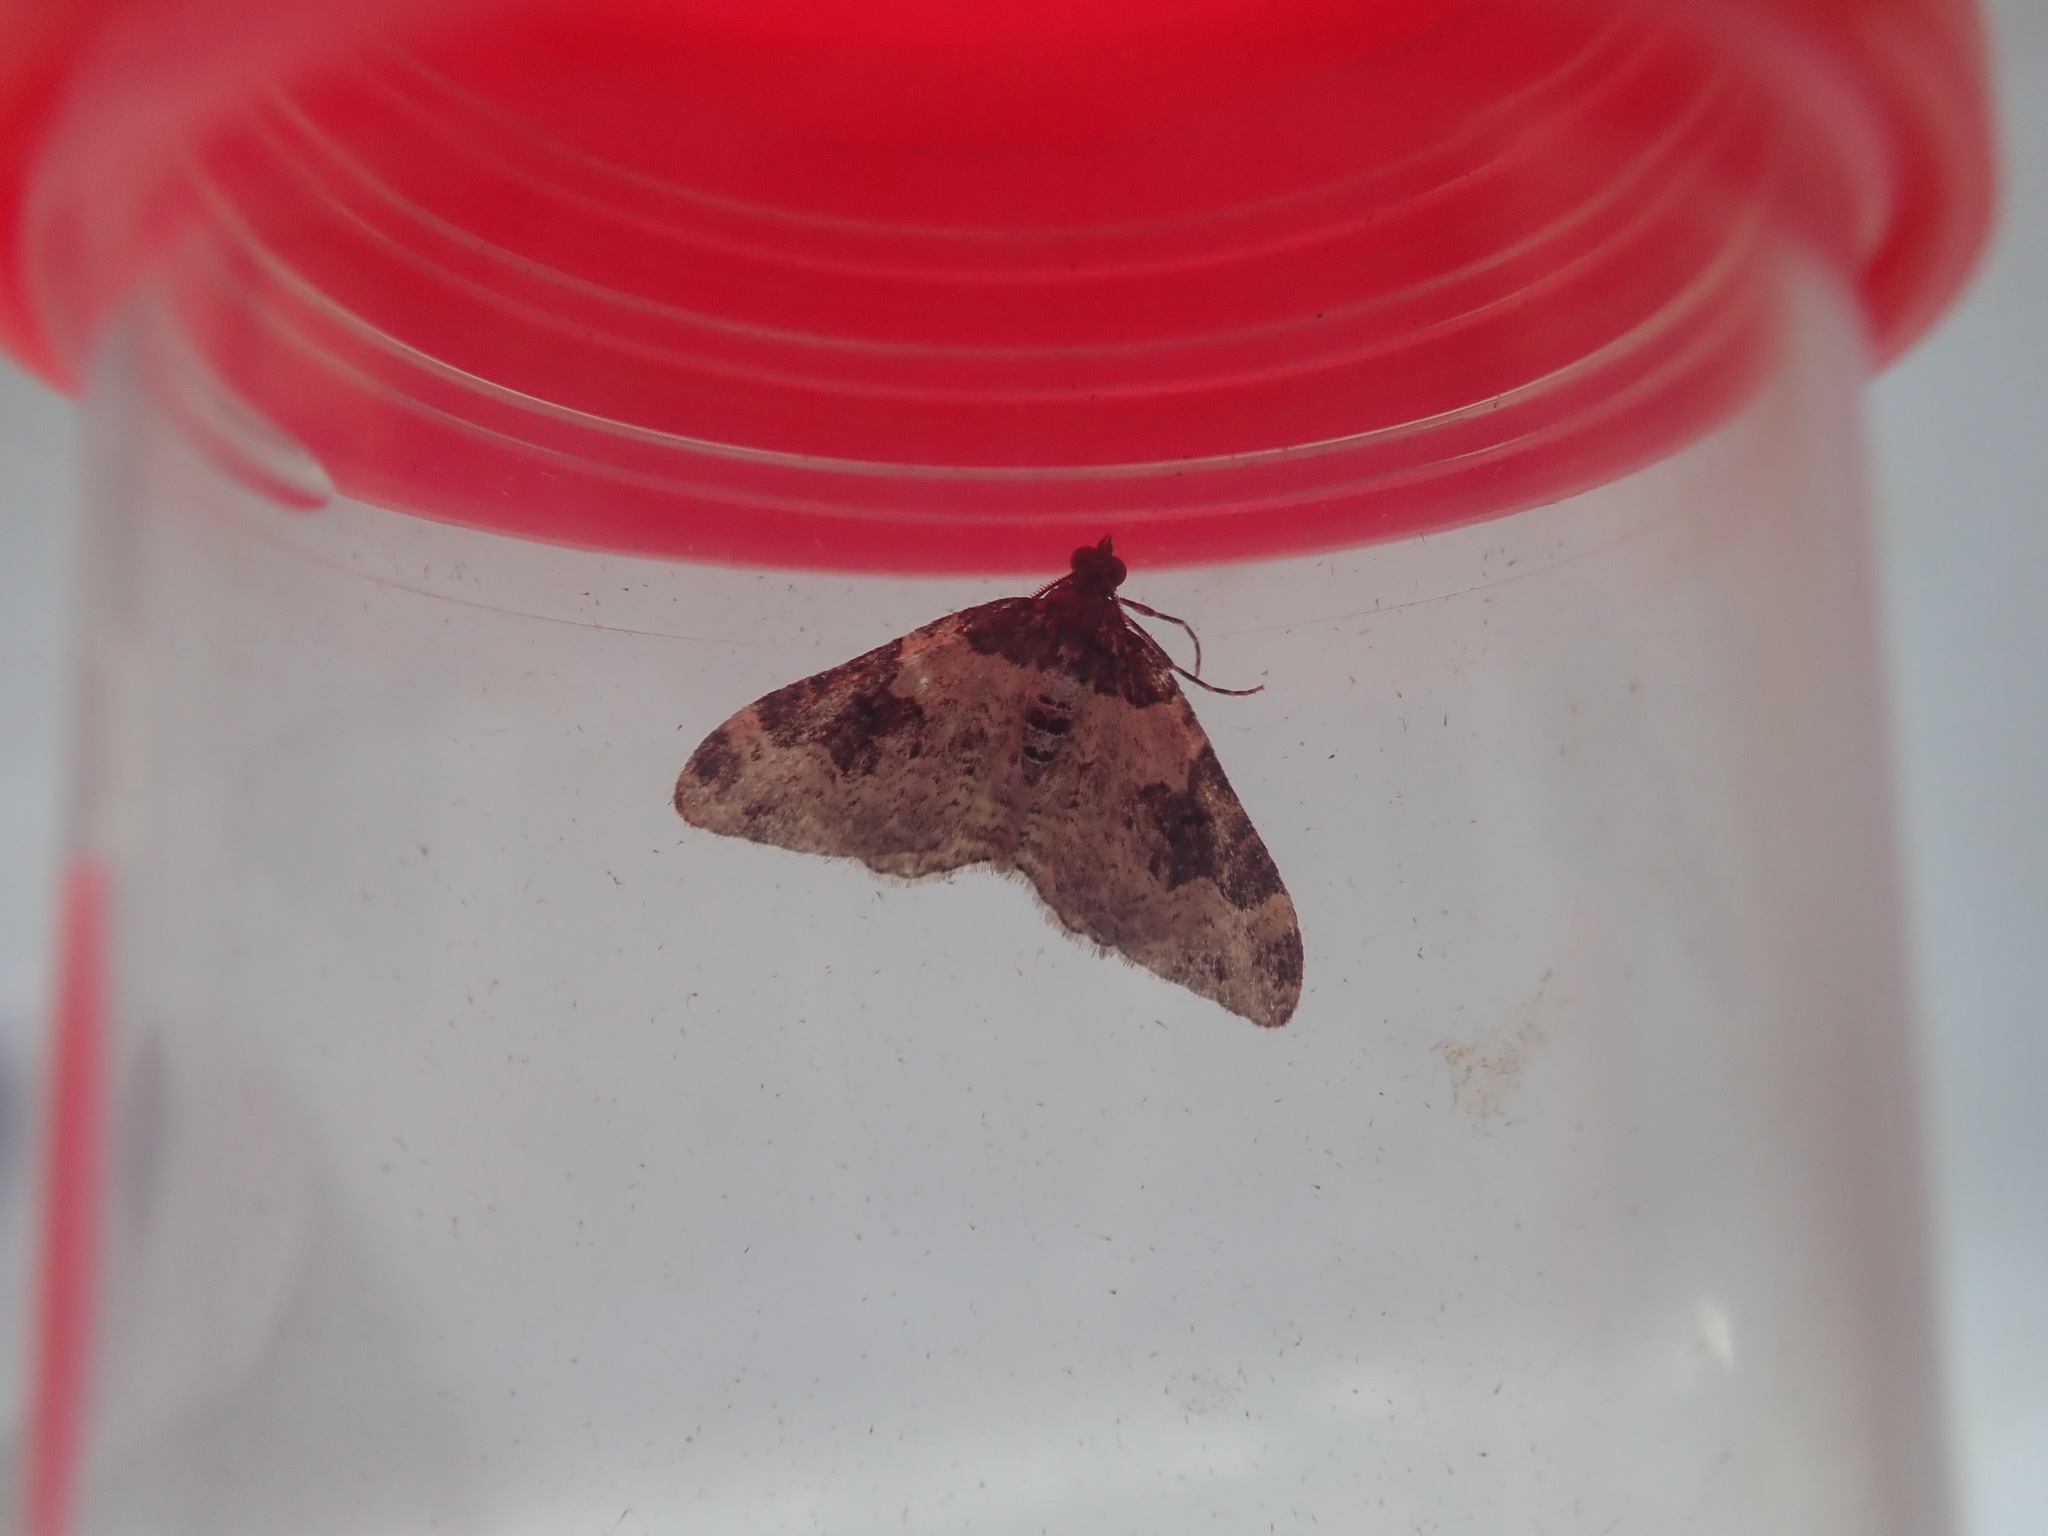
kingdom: Animalia
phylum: Arthropoda
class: Insecta
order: Lepidoptera
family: Geometridae
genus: Xanthorhoe
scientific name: Xanthorhoe fluctuata
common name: Garden carpet
